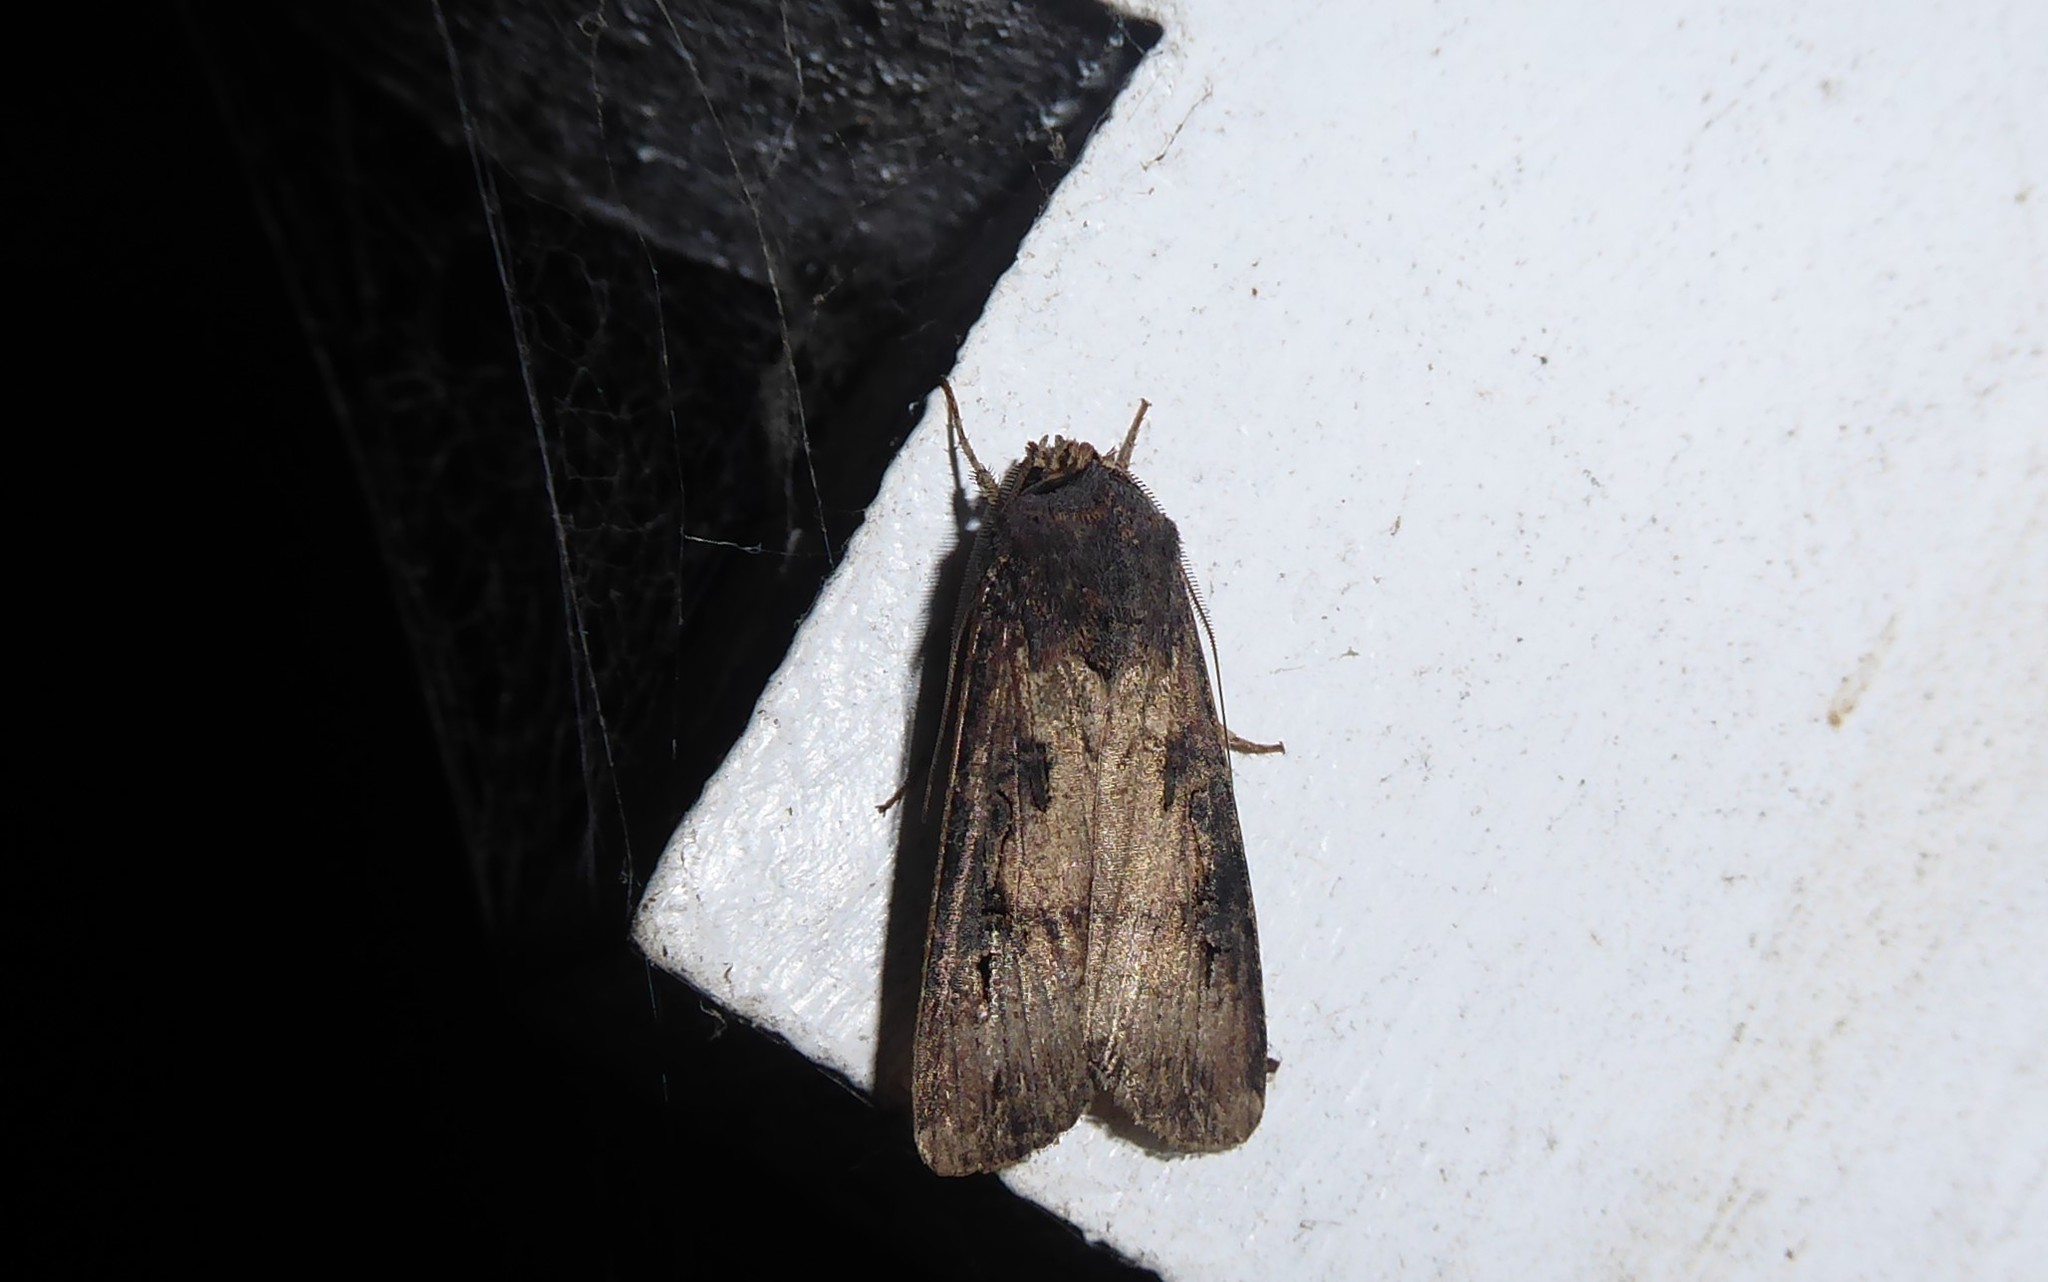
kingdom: Animalia
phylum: Arthropoda
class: Insecta
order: Lepidoptera
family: Noctuidae
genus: Agrotis
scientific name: Agrotis ipsilon
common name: Dark sword-grass
